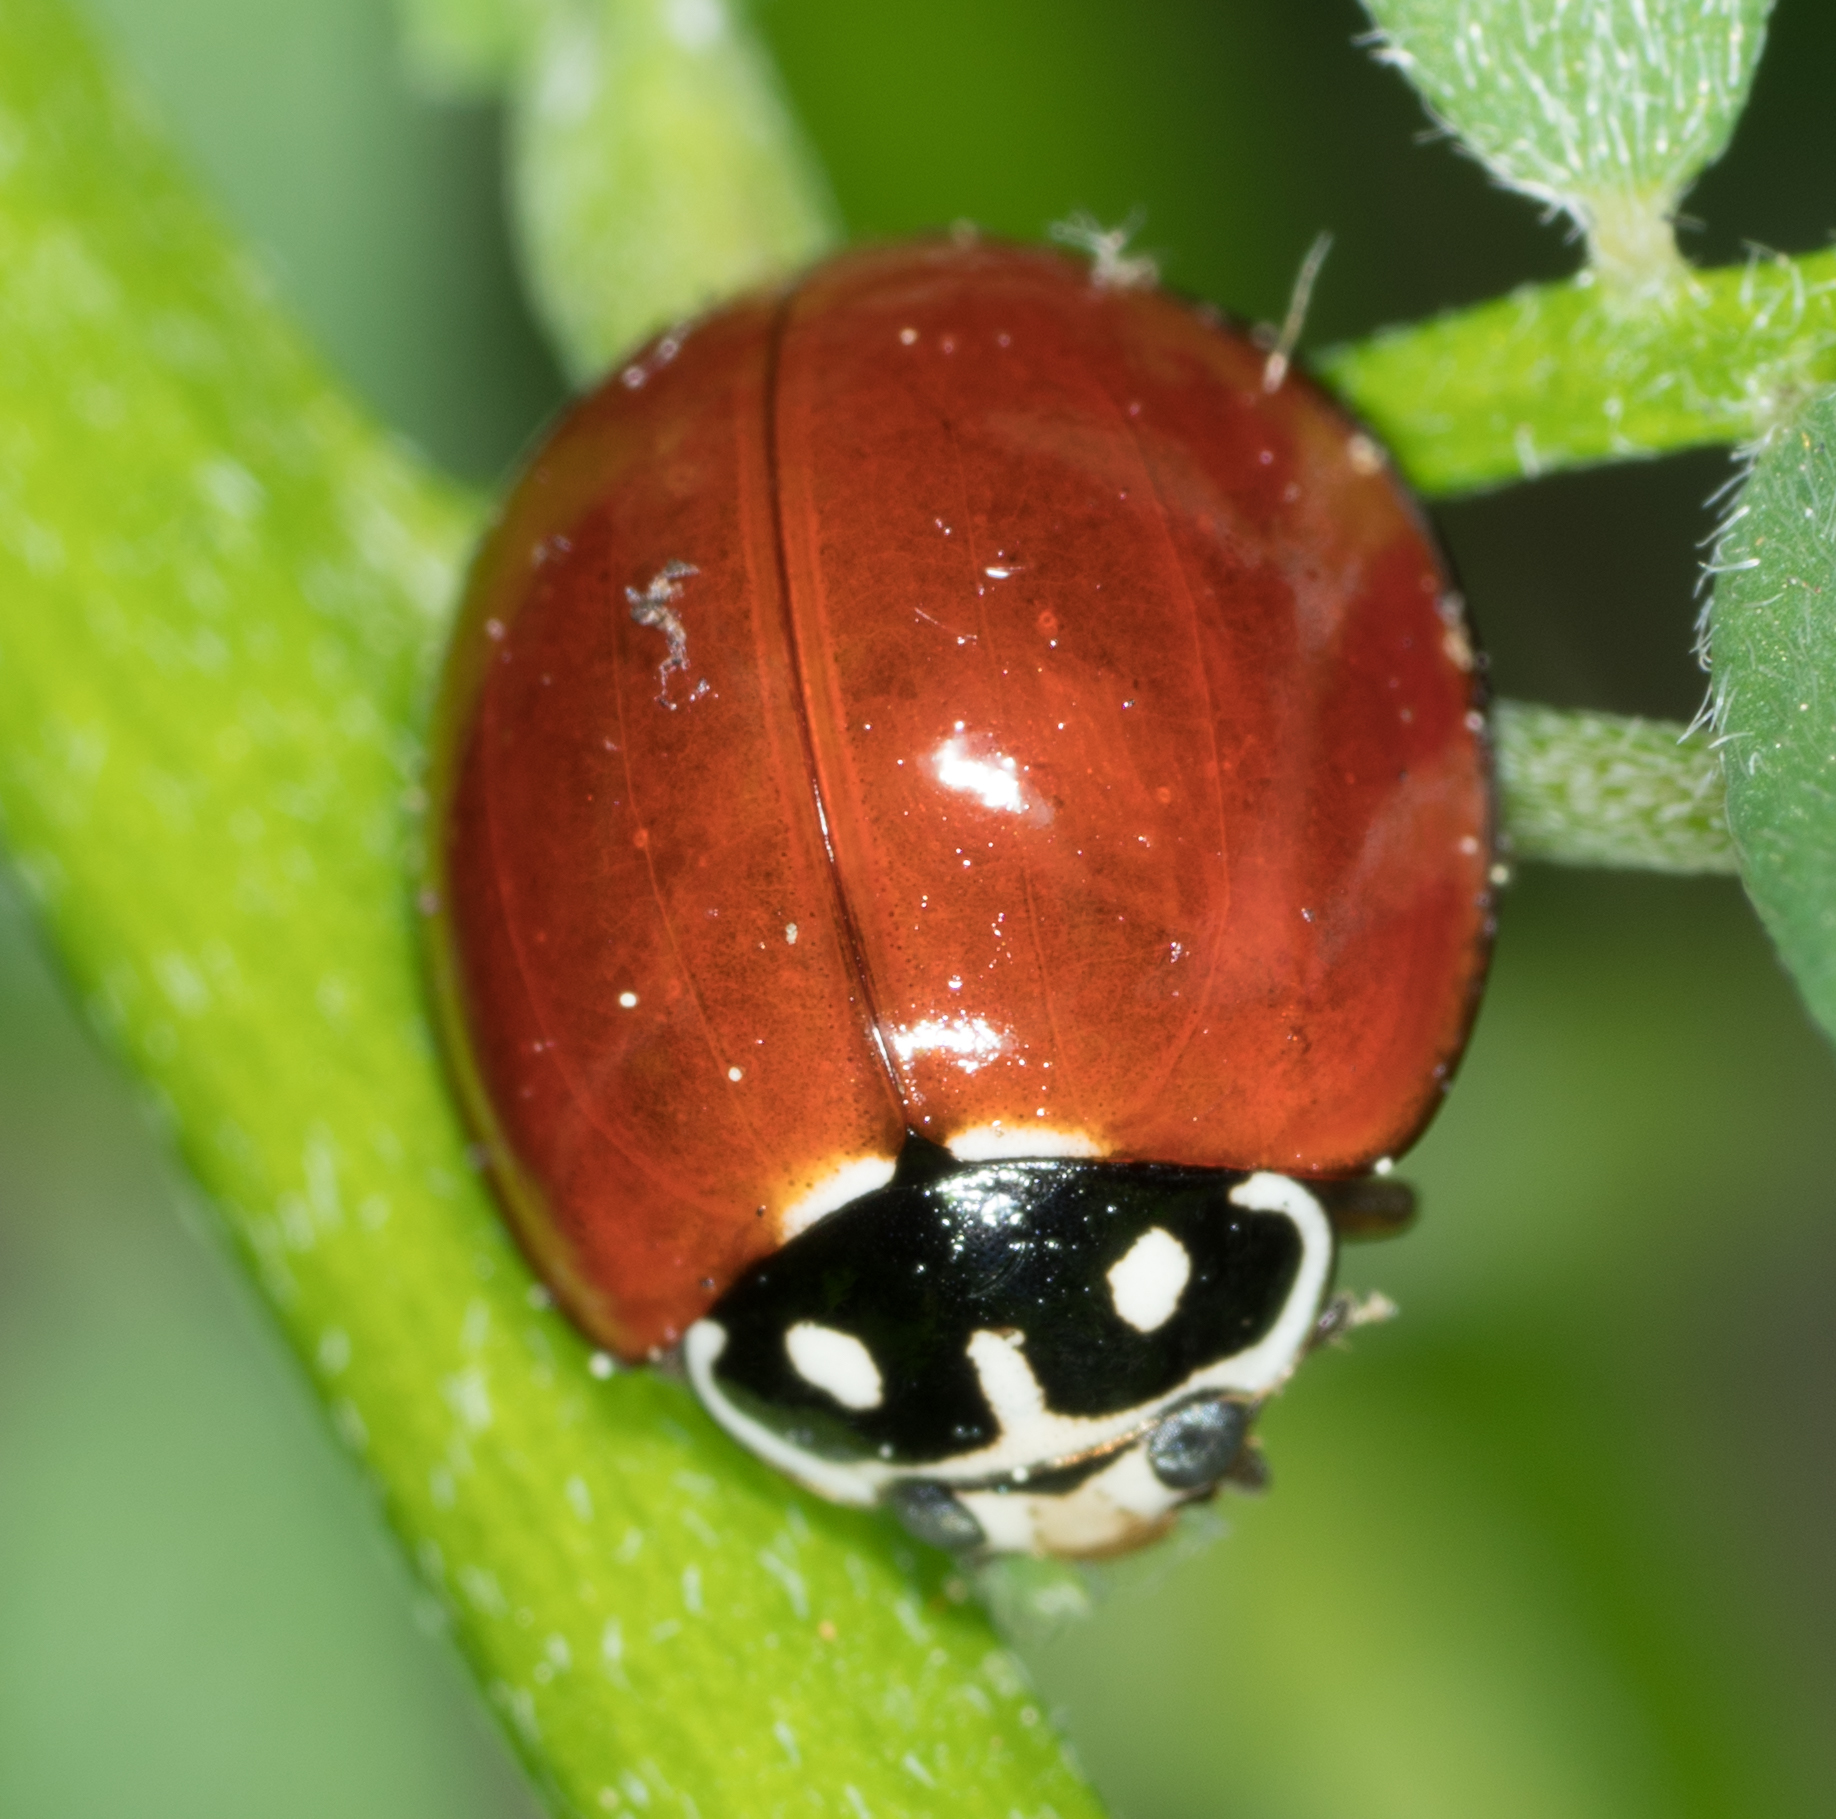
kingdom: Animalia
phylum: Arthropoda
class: Insecta
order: Coleoptera
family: Coccinellidae
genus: Cycloneda
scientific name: Cycloneda sanguinea
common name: Ladybird beetle
